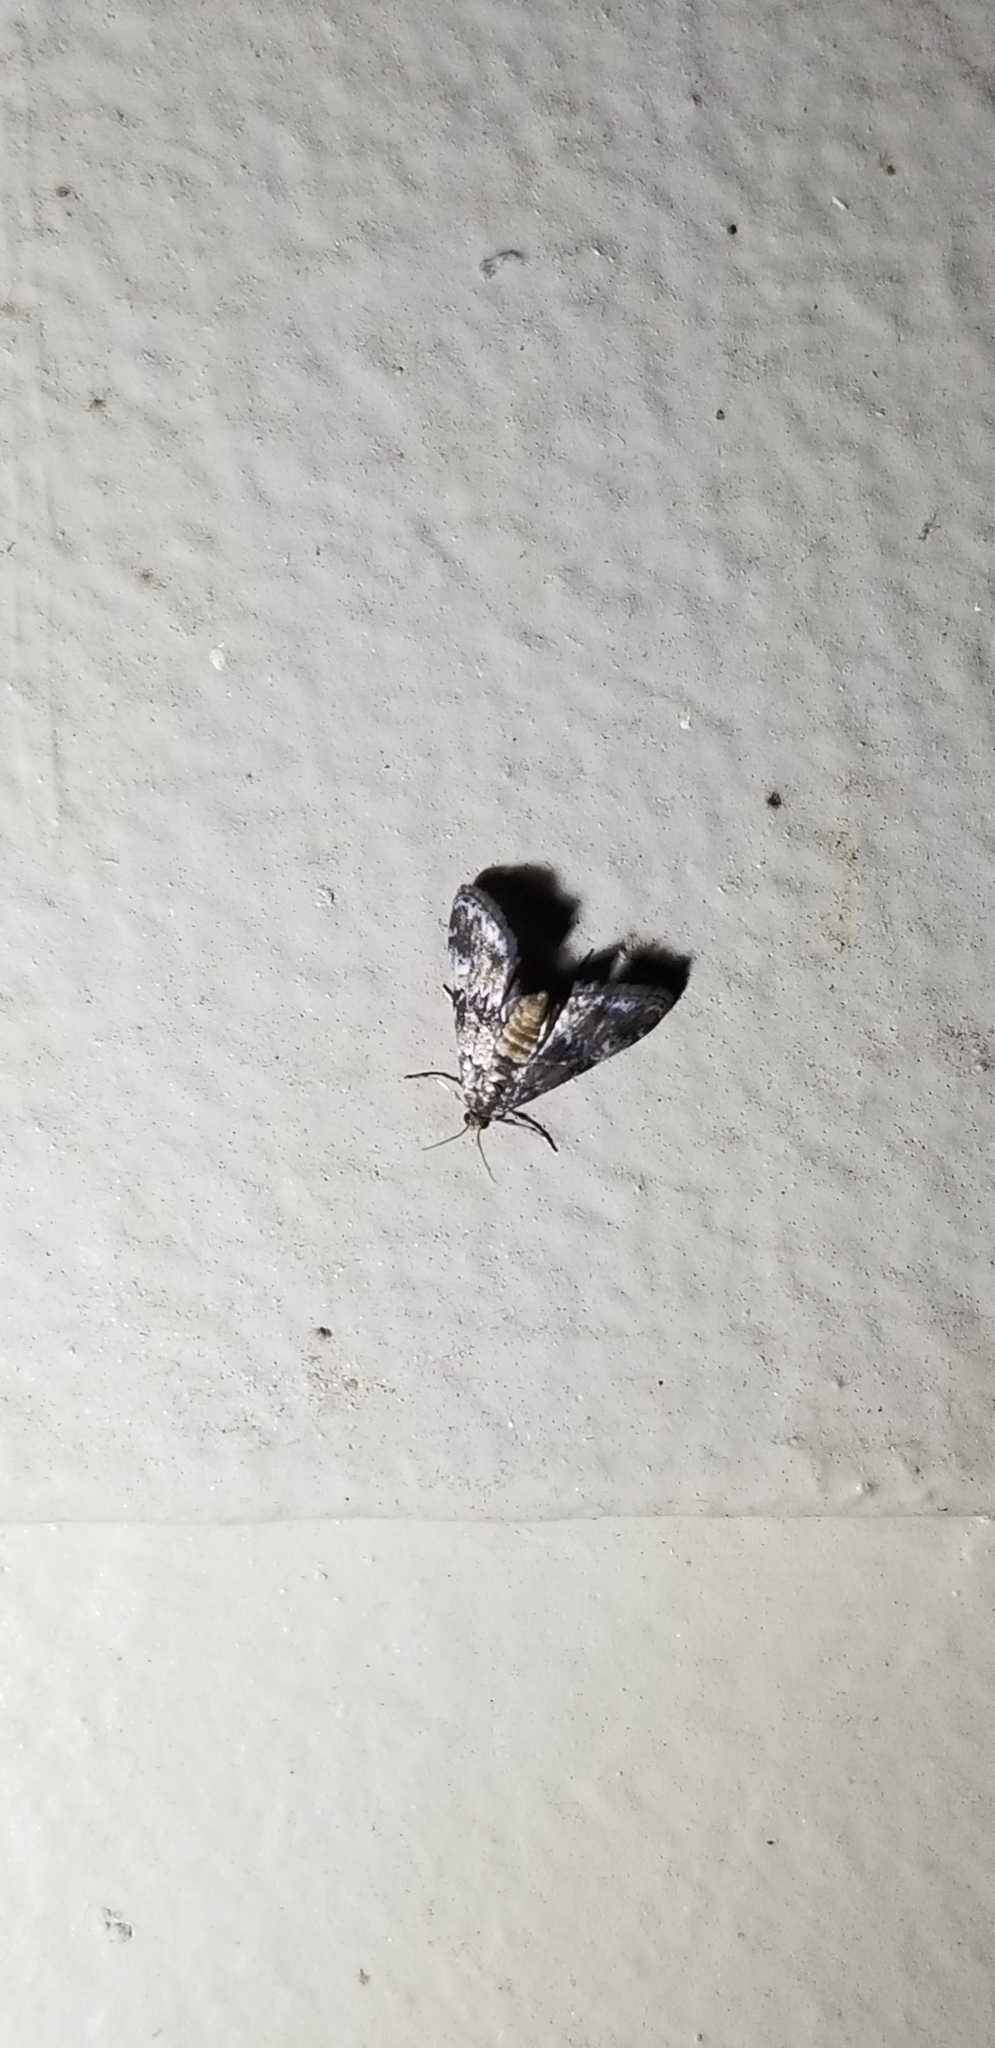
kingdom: Animalia
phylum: Arthropoda
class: Insecta
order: Lepidoptera
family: Crambidae
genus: Elophila
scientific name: Elophila obliteralis
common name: Waterlily leafcutter moth
